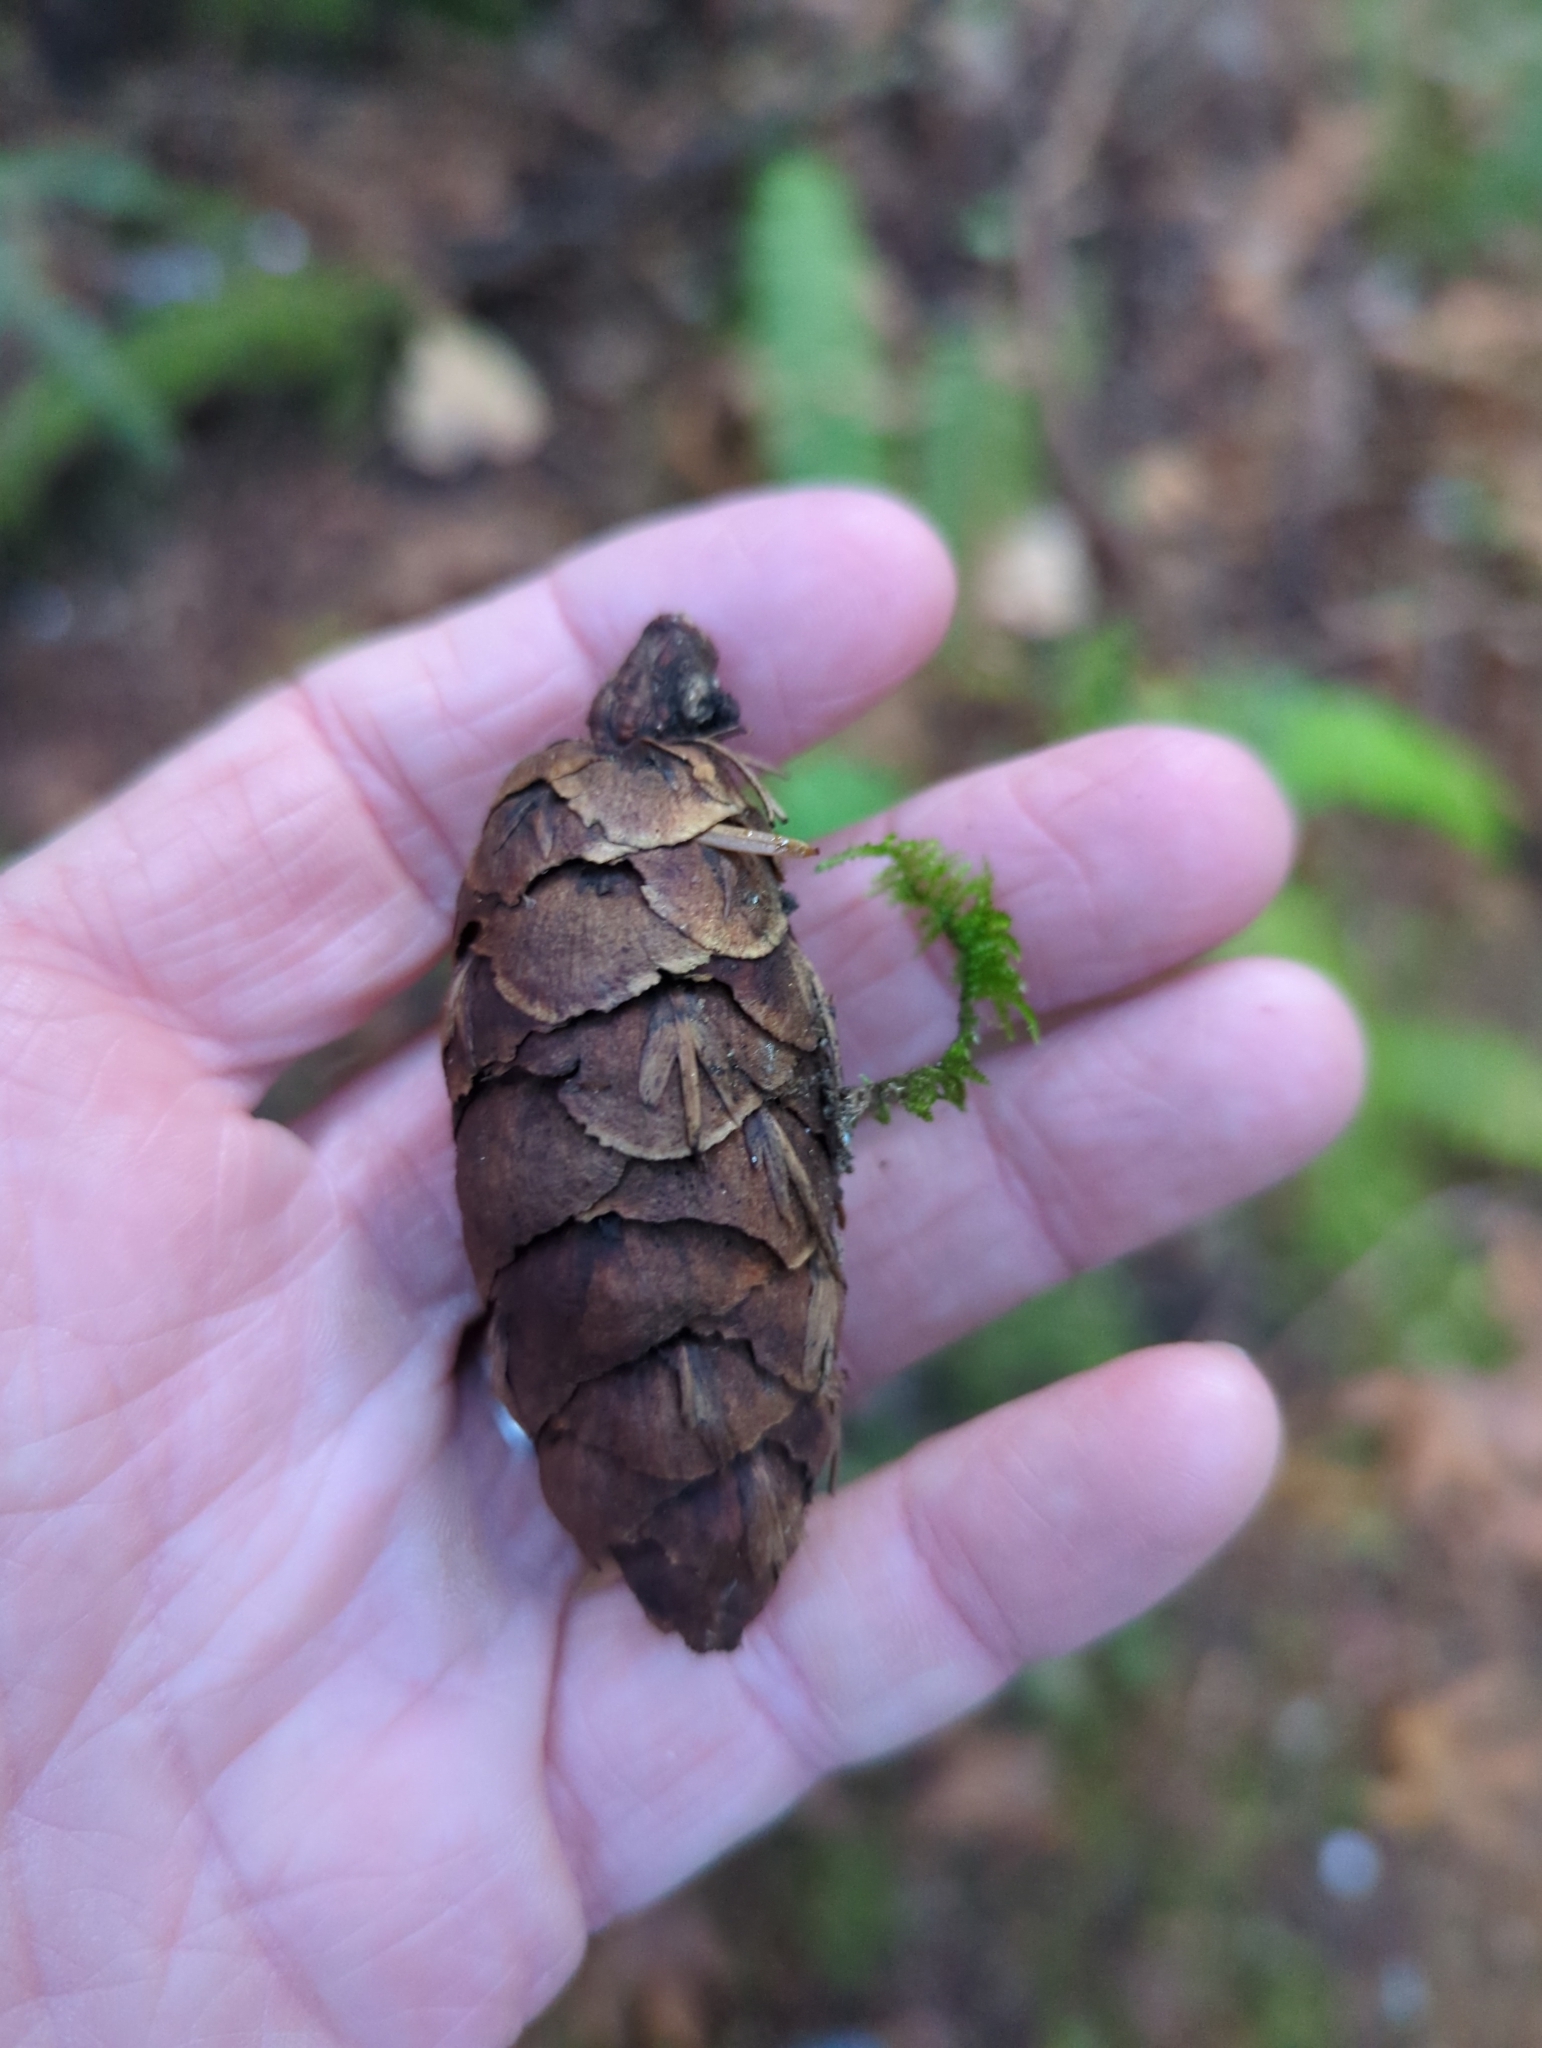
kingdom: Plantae
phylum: Tracheophyta
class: Pinopsida
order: Pinales
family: Pinaceae
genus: Pseudotsuga
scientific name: Pseudotsuga menziesii
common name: Douglas fir
